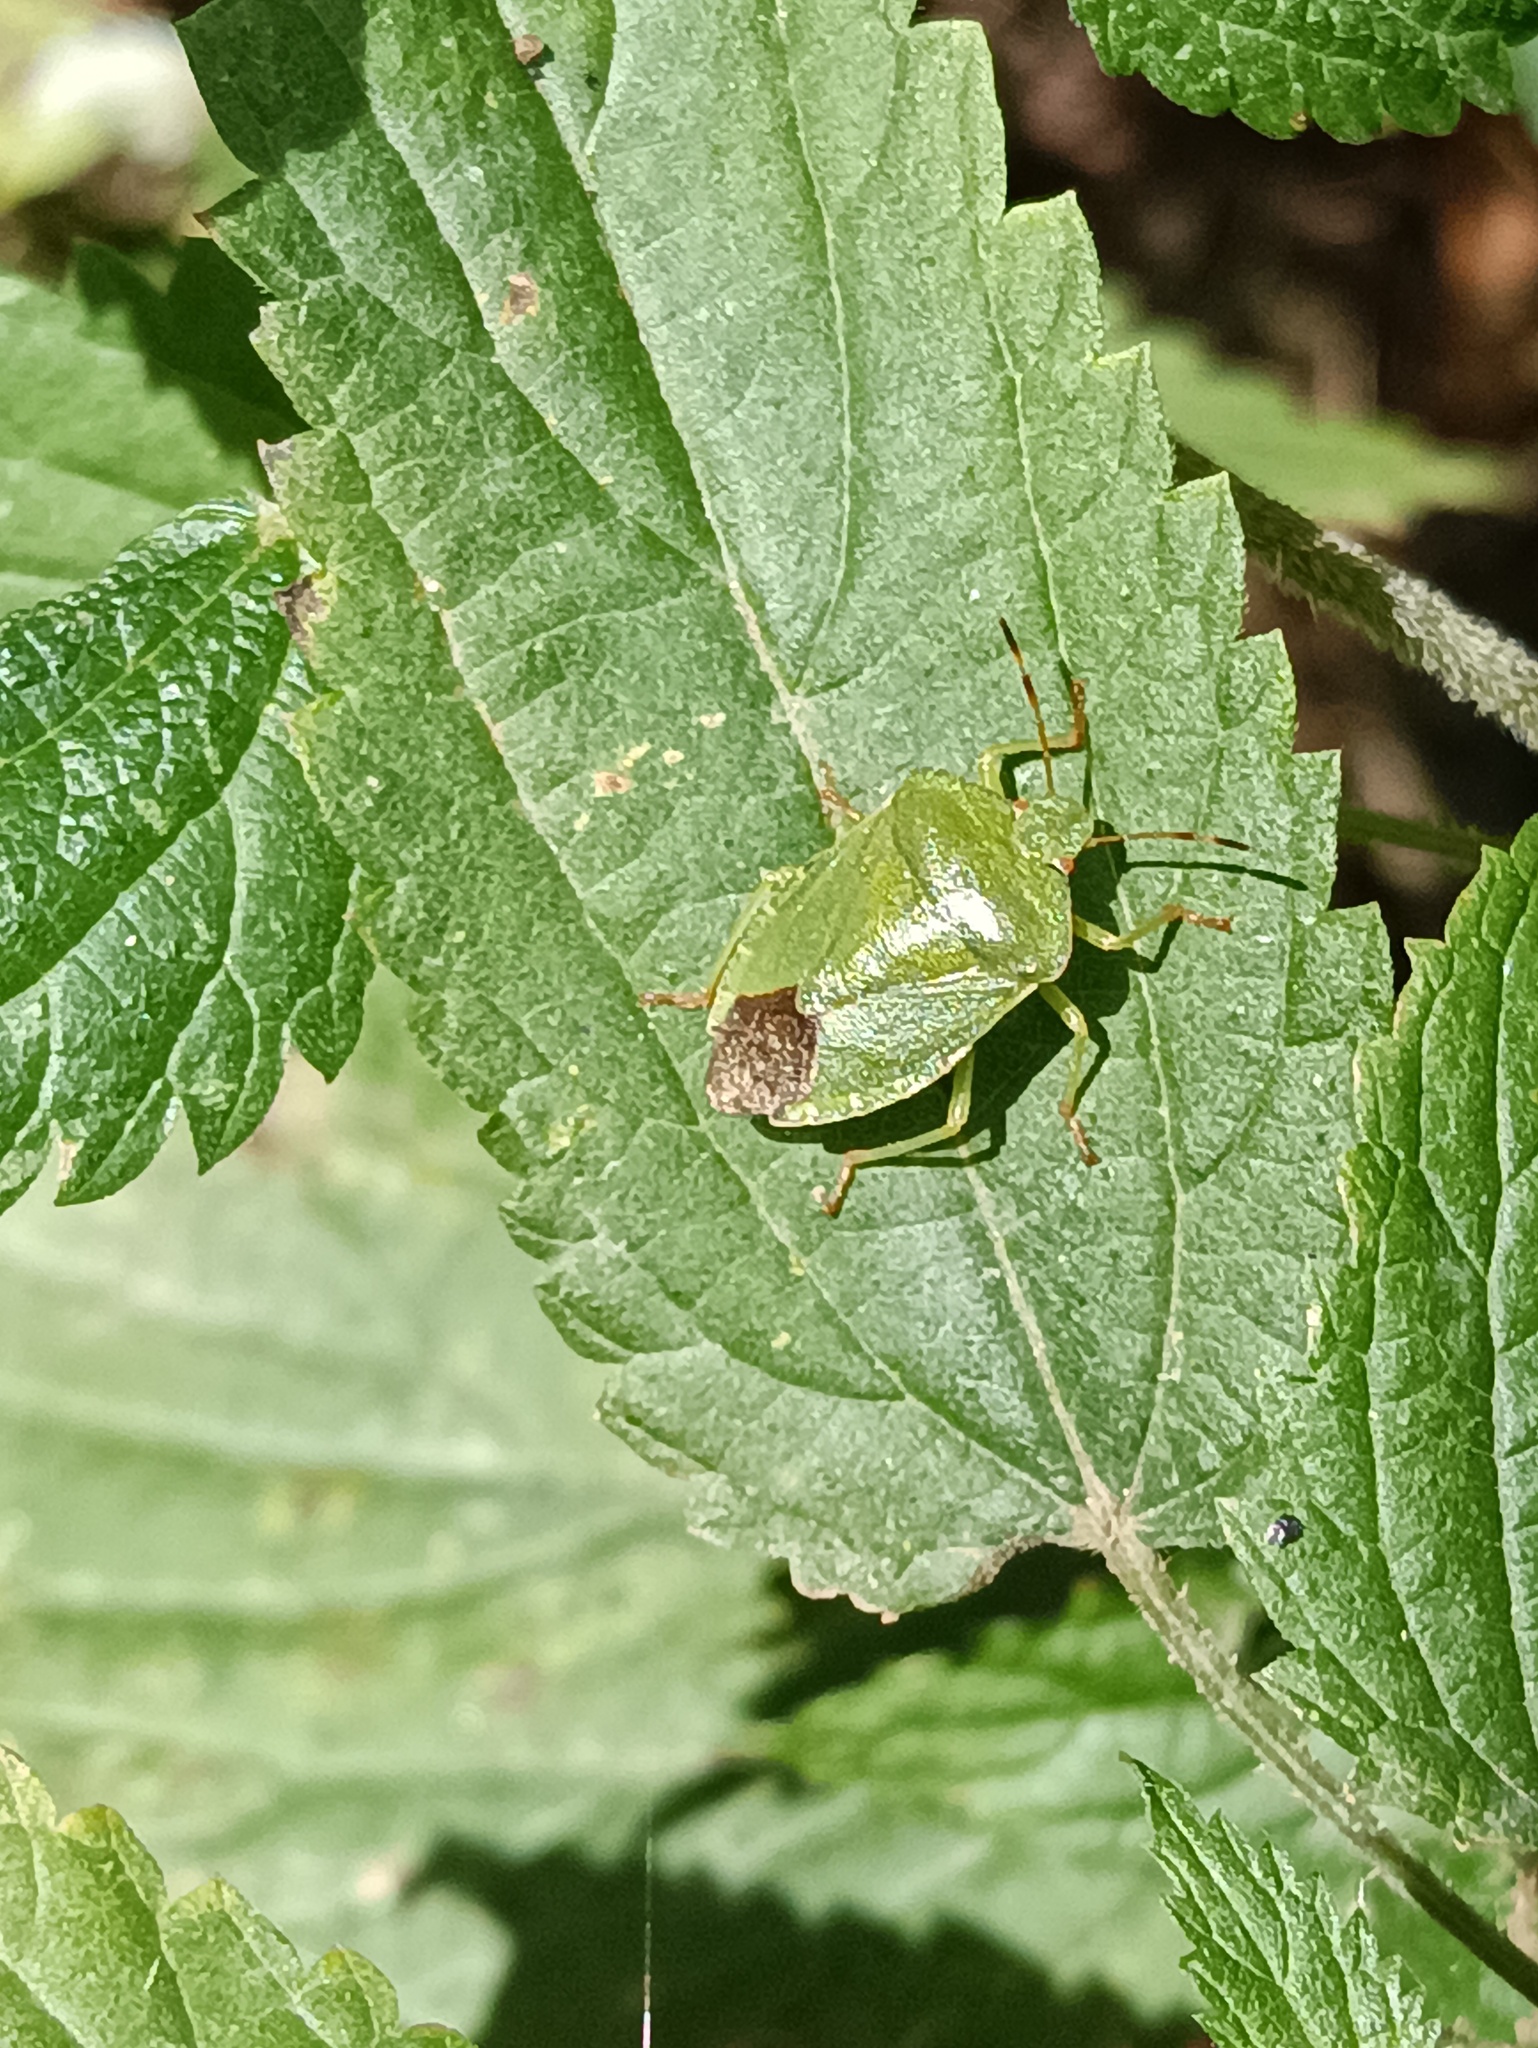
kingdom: Animalia
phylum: Arthropoda
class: Insecta
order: Hemiptera
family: Pentatomidae
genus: Palomena
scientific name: Palomena prasina
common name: Green shieldbug
